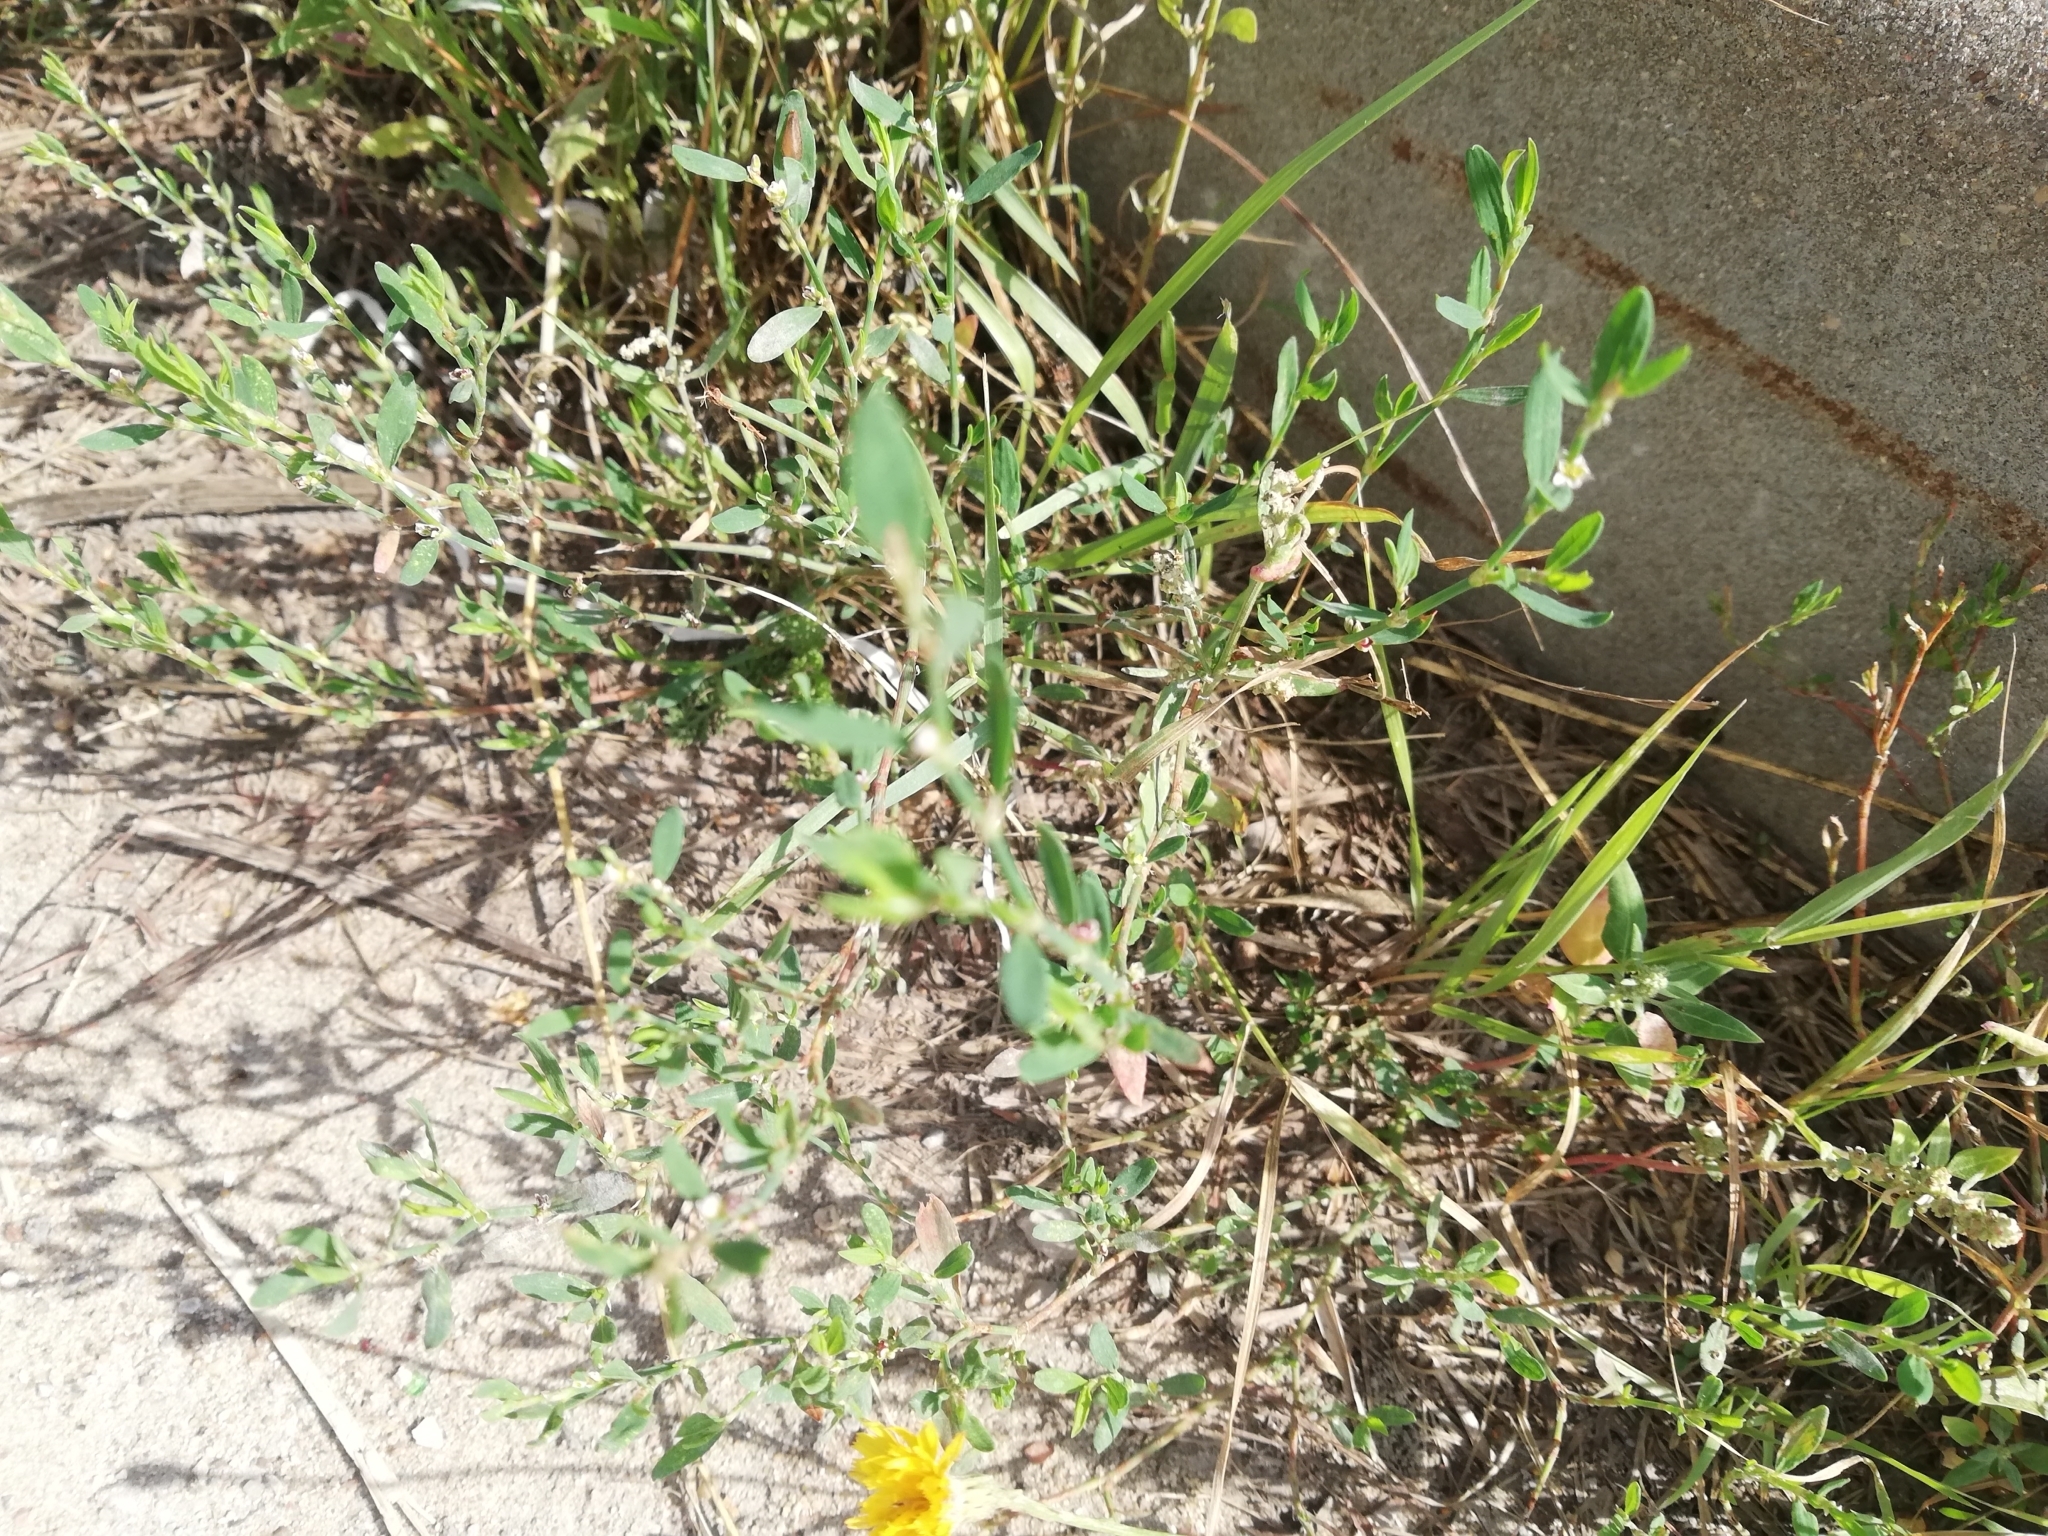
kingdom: Plantae
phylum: Tracheophyta
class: Magnoliopsida
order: Caryophyllales
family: Polygonaceae
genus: Polygonum
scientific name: Polygonum
